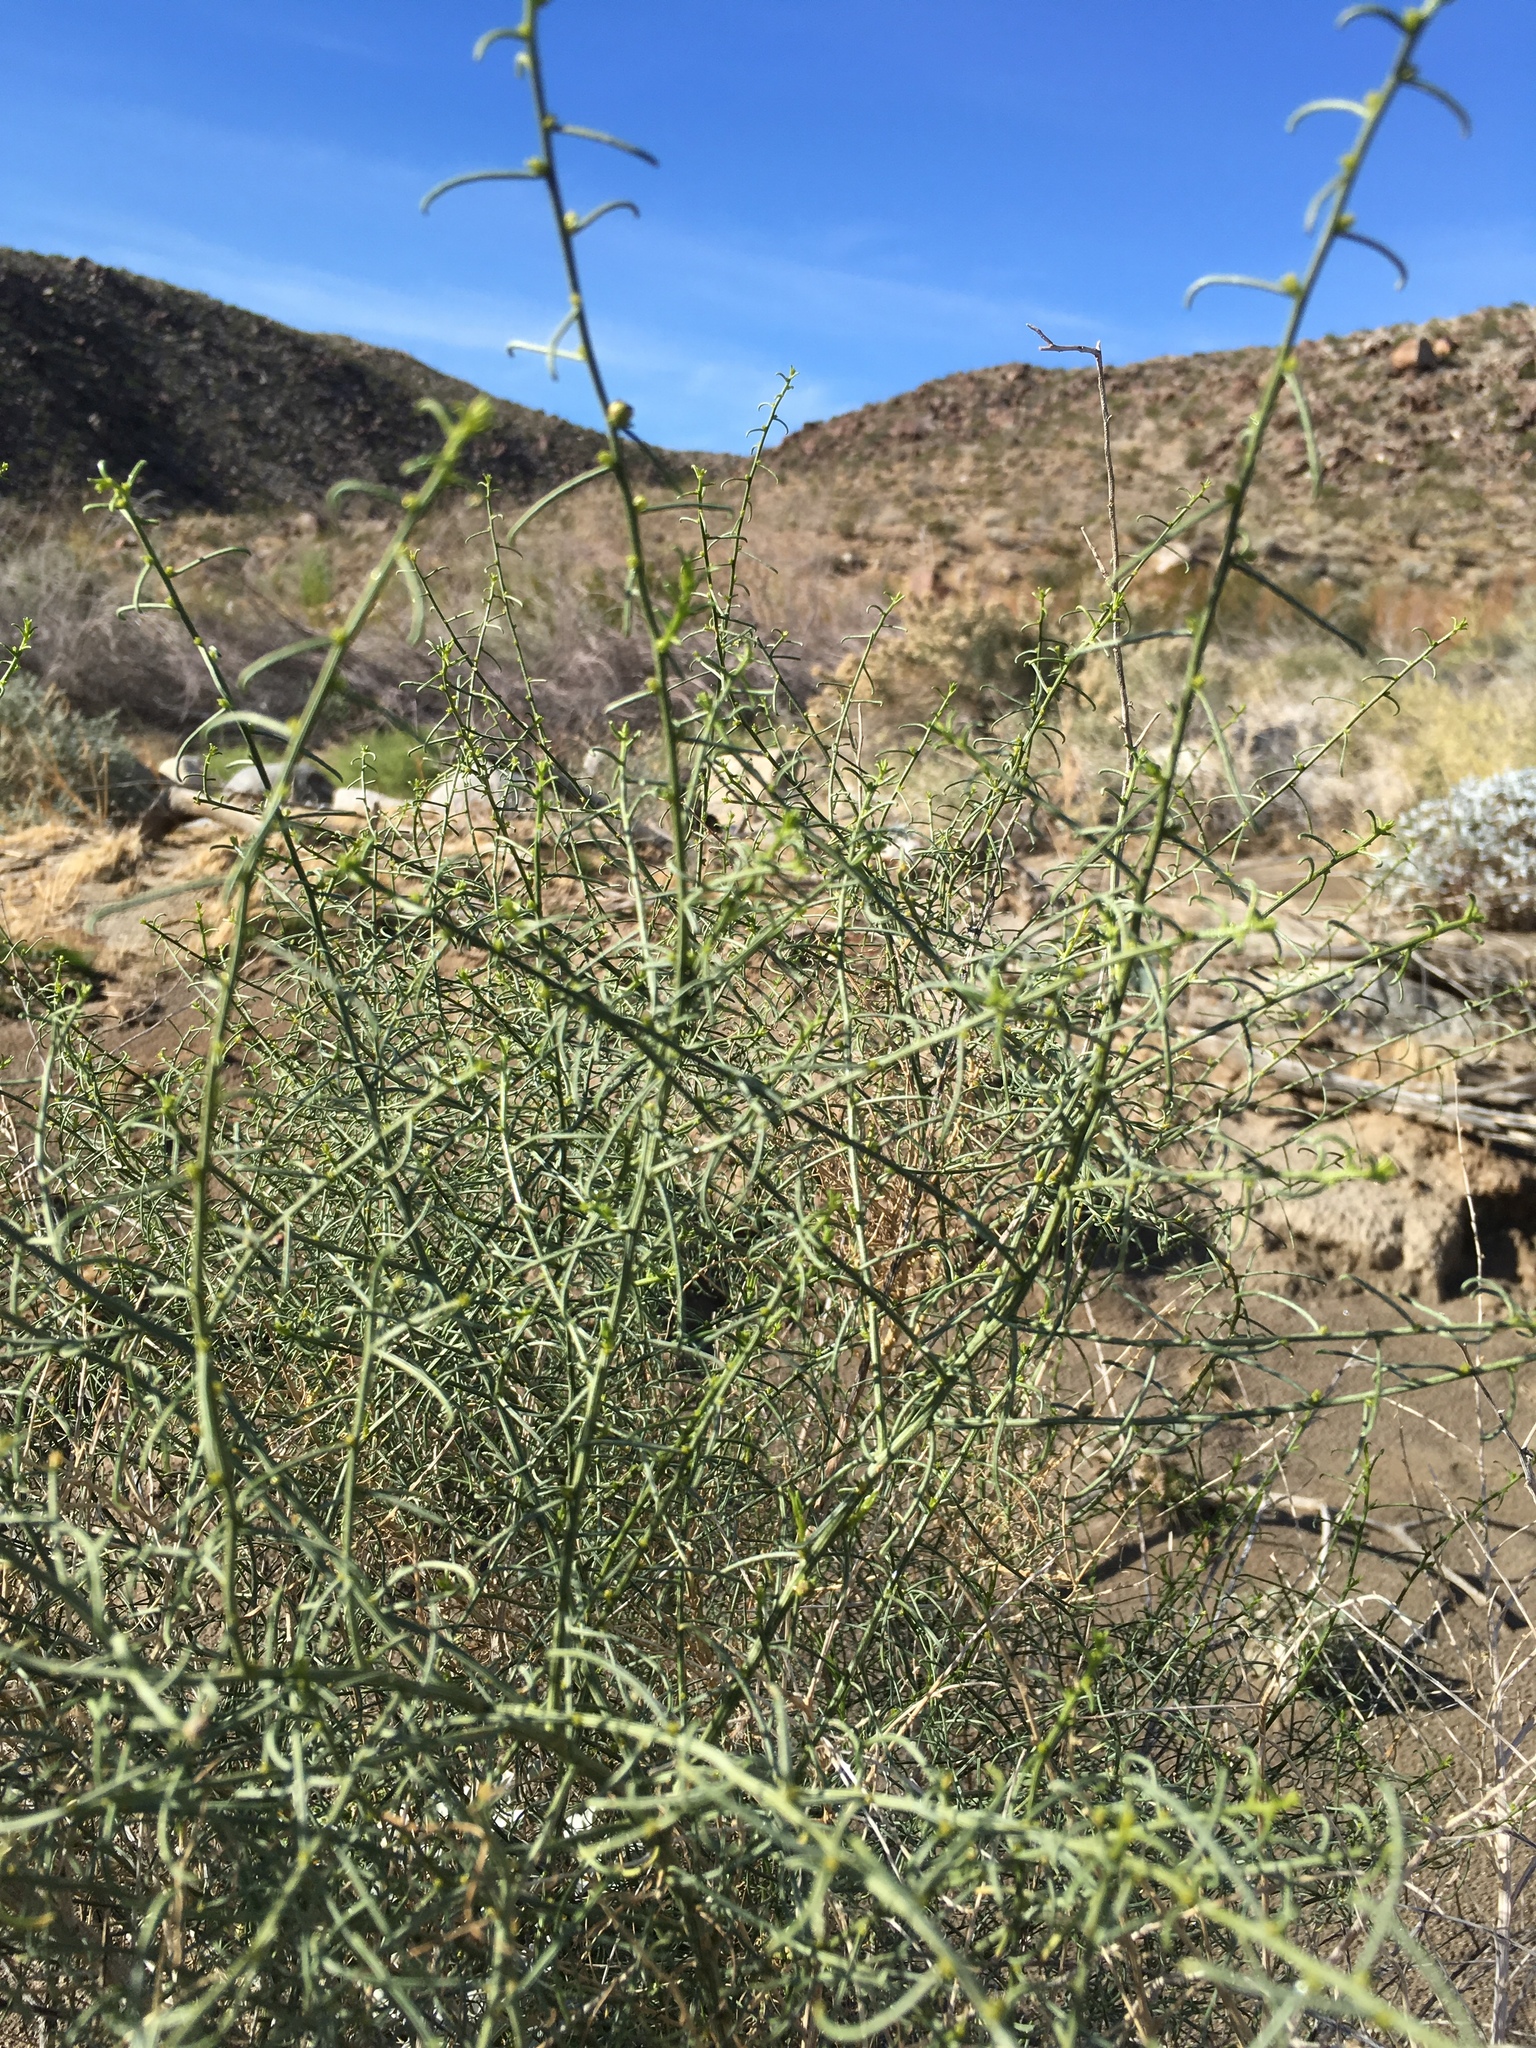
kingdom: Plantae
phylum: Tracheophyta
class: Magnoliopsida
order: Asterales
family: Asteraceae
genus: Ambrosia
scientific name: Ambrosia salsola
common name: Burrobrush
